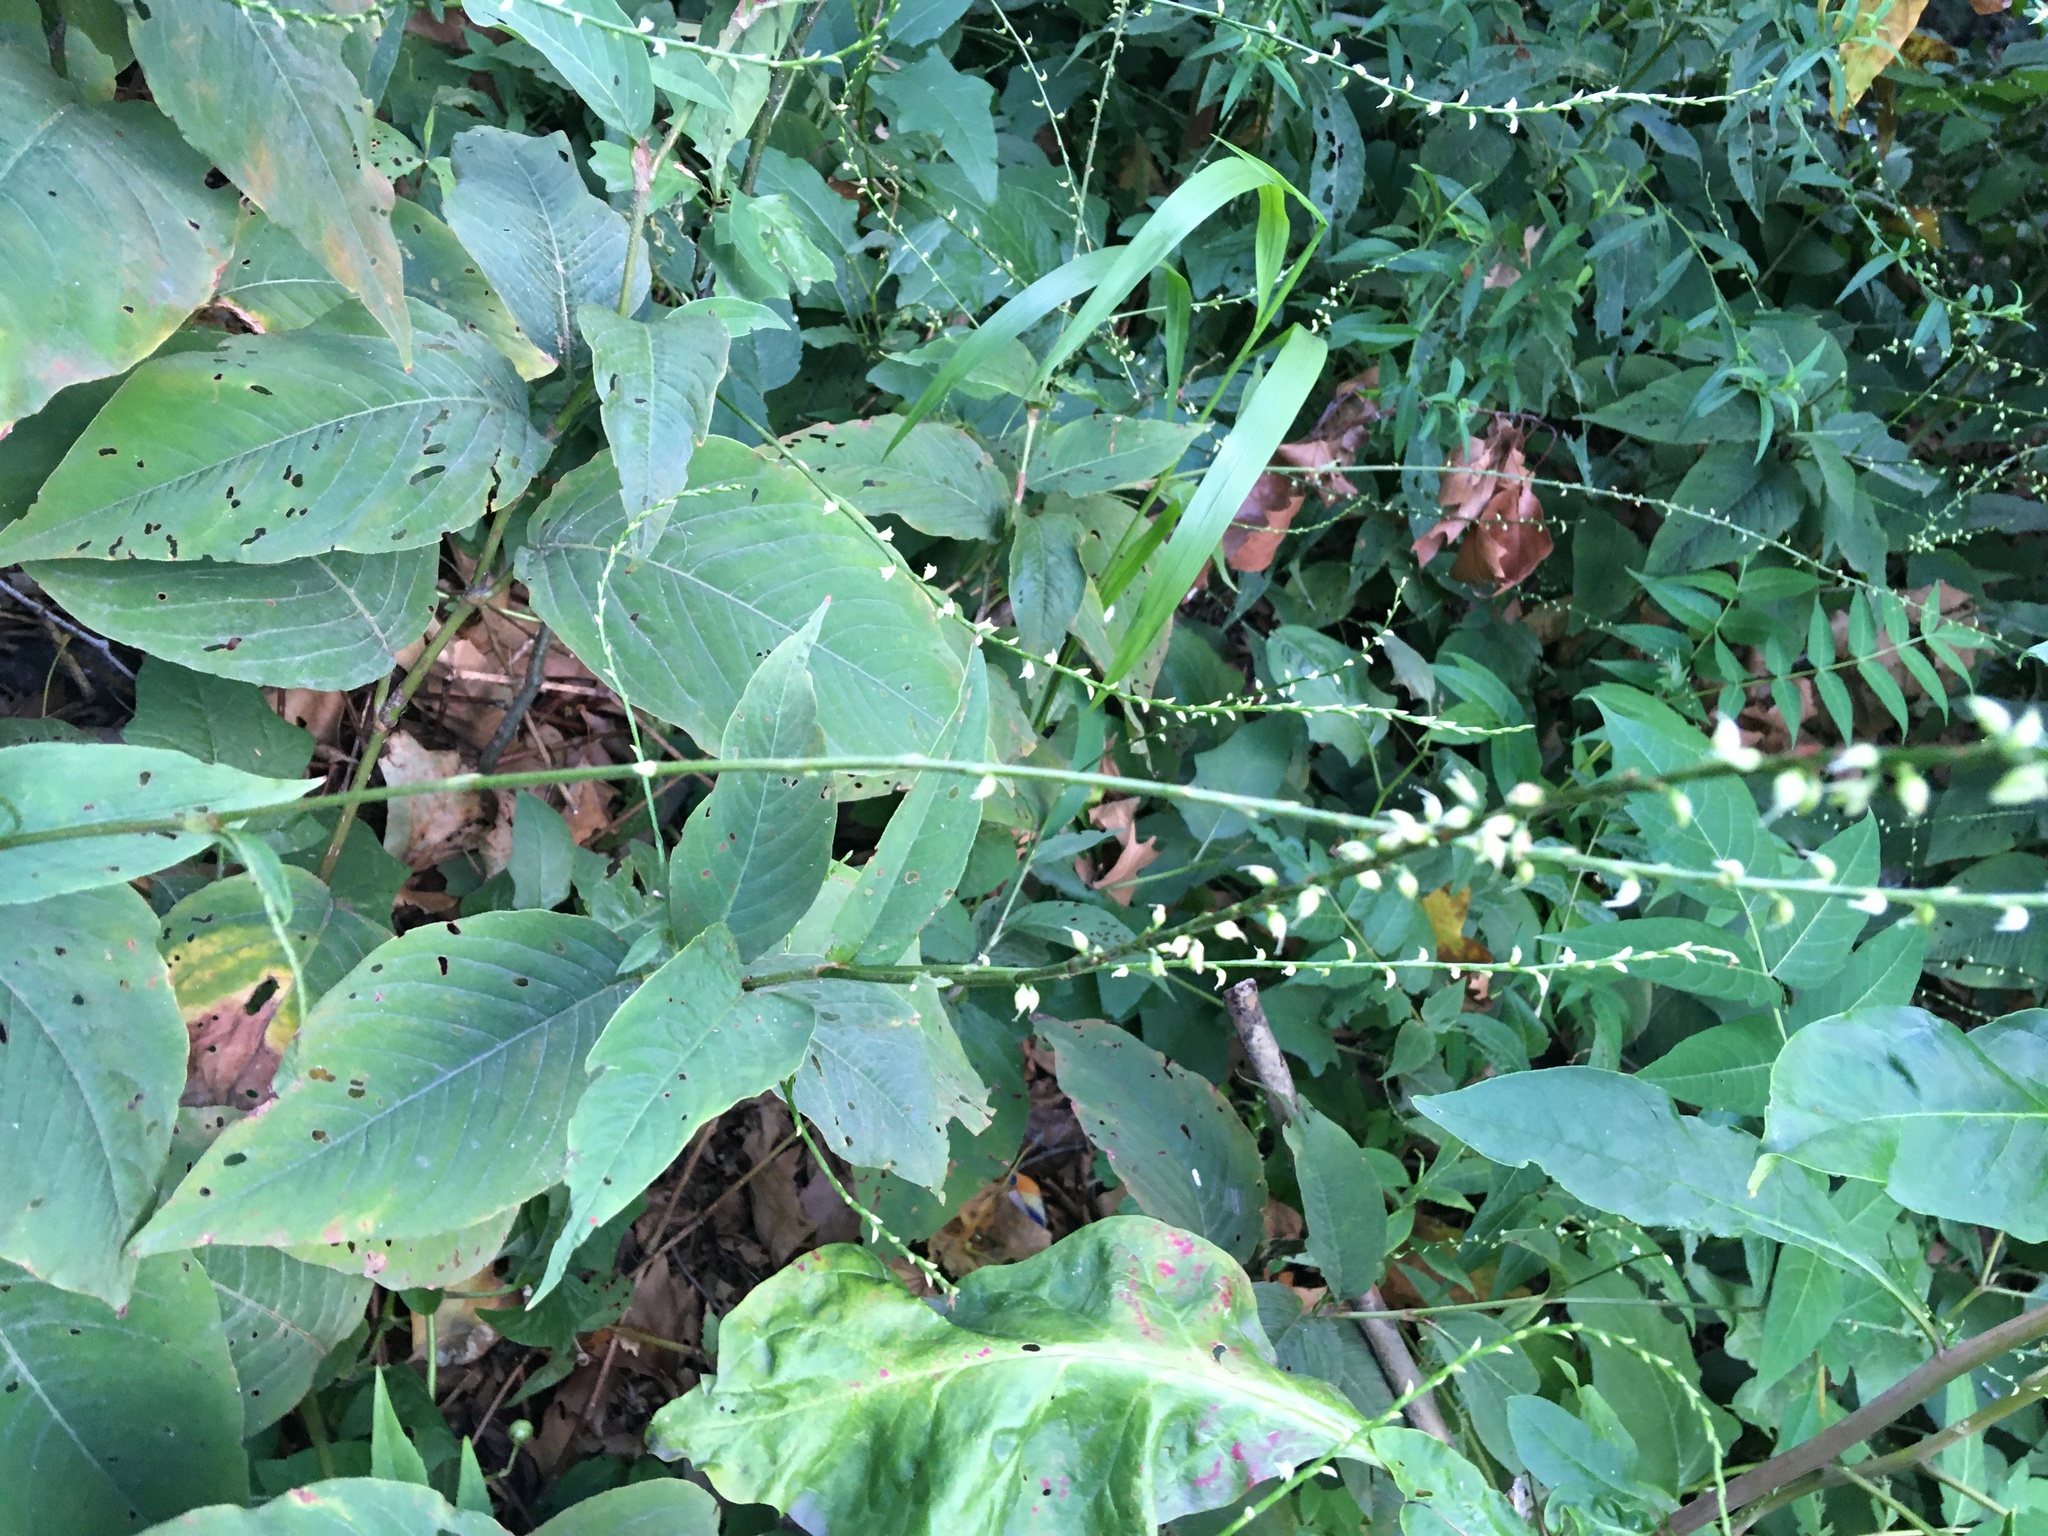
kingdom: Plantae
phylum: Tracheophyta
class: Magnoliopsida
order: Caryophyllales
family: Polygonaceae
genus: Persicaria
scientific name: Persicaria virginiana
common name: Jumpseed
